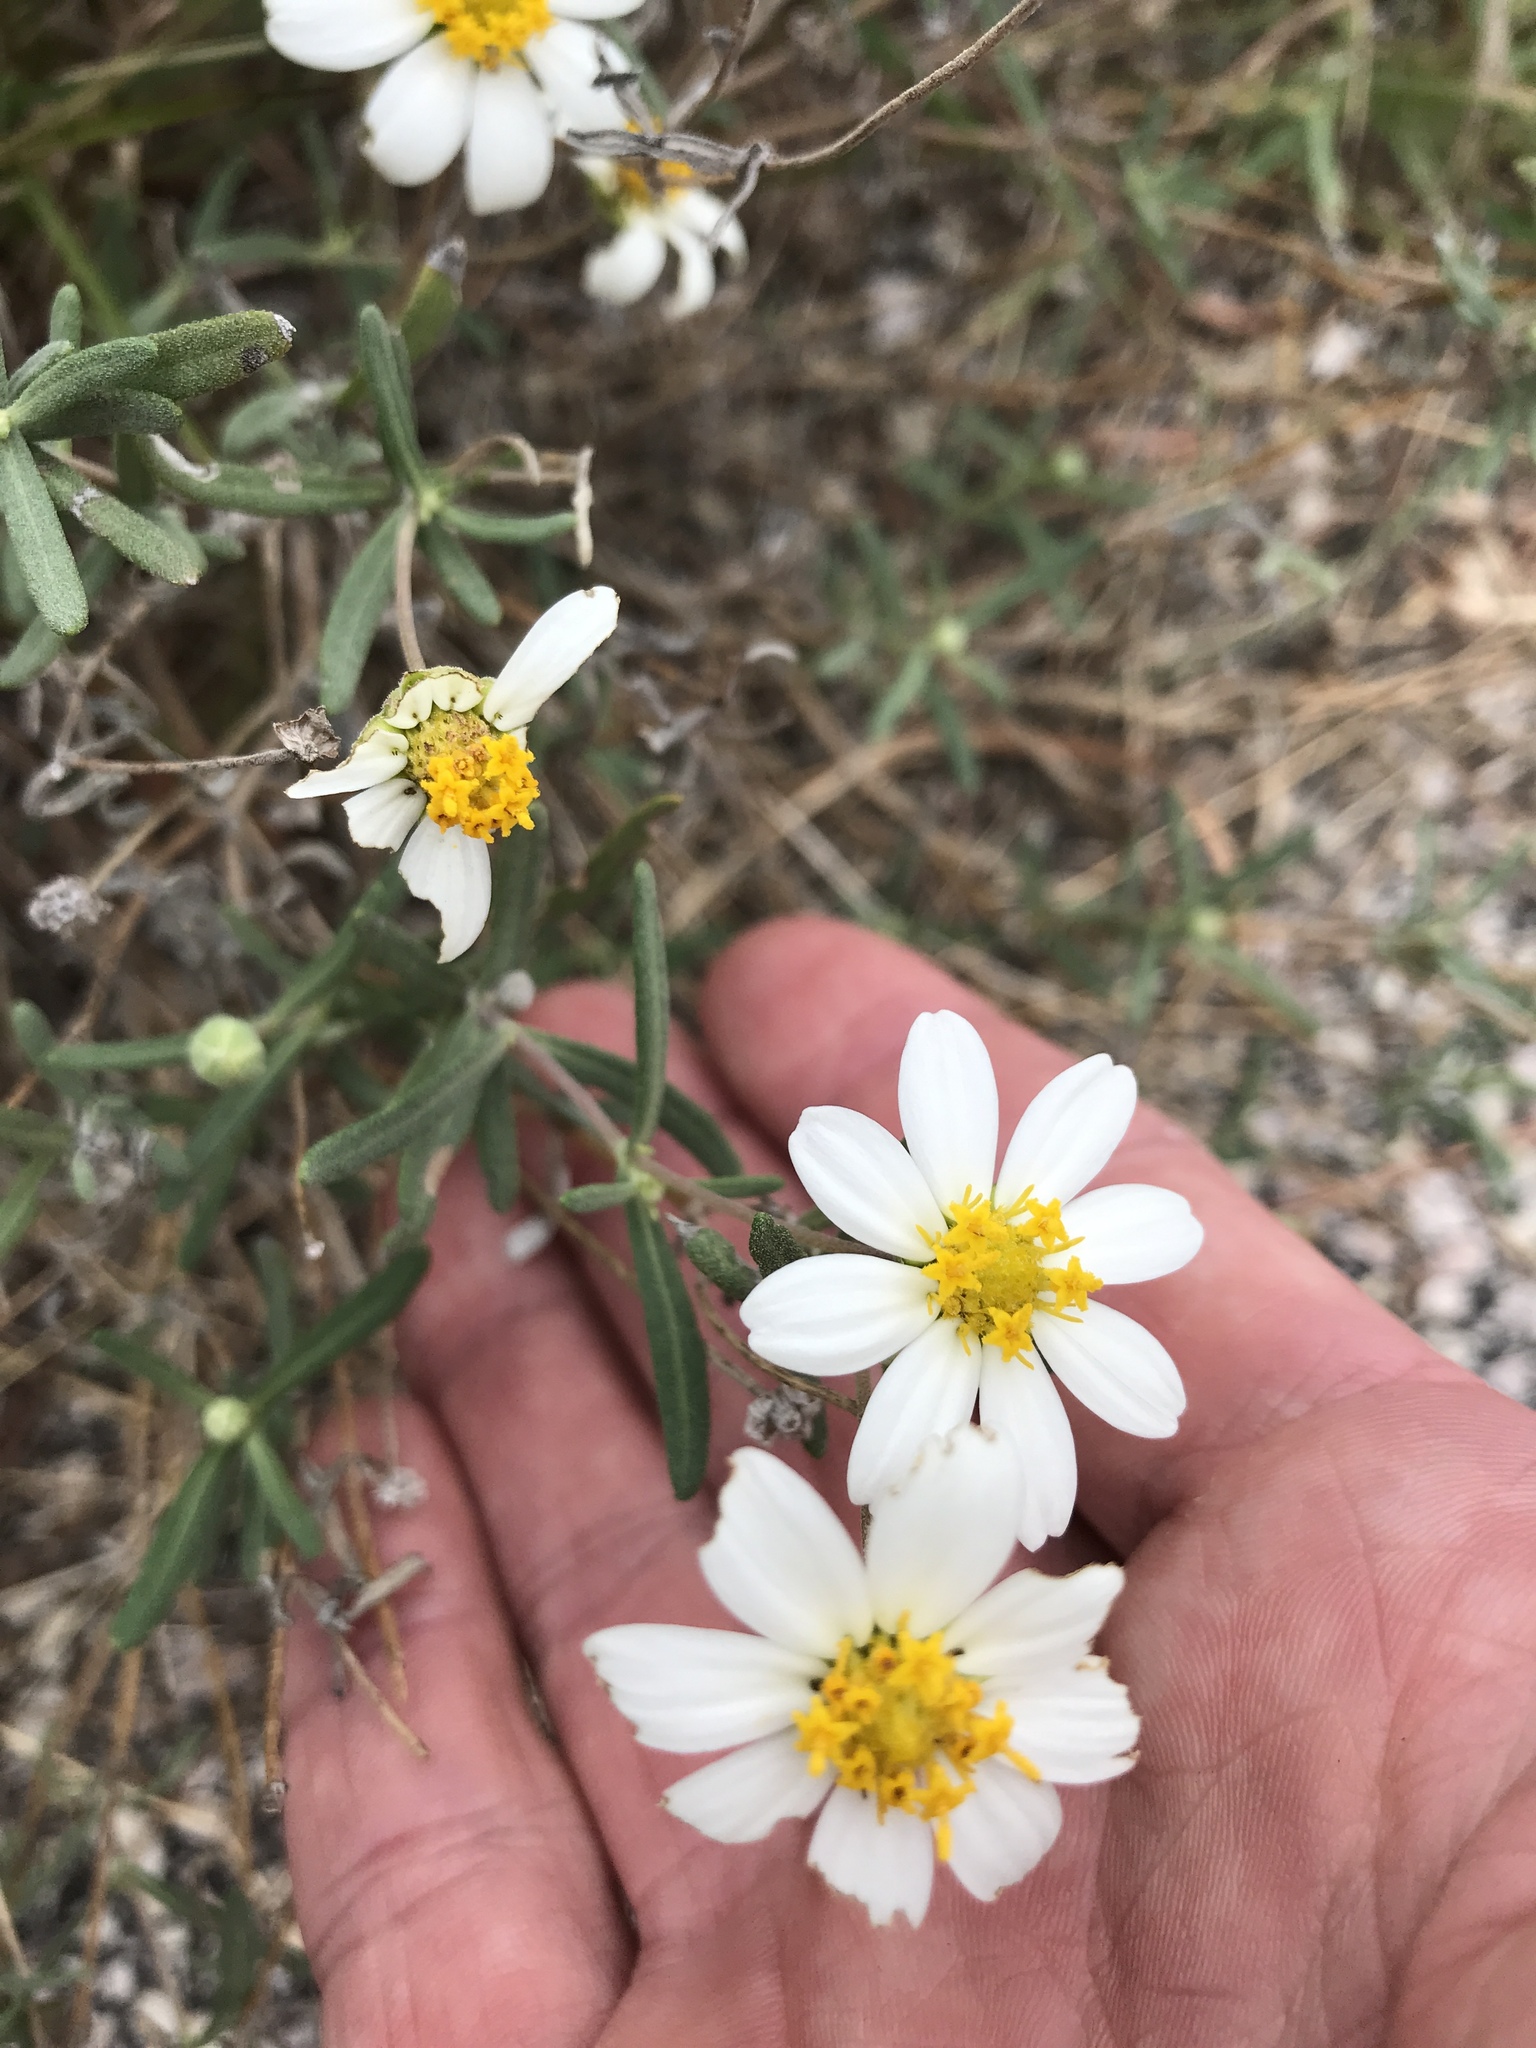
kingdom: Plantae
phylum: Tracheophyta
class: Magnoliopsida
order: Asterales
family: Asteraceae
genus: Melampodium
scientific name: Melampodium leucanthum
